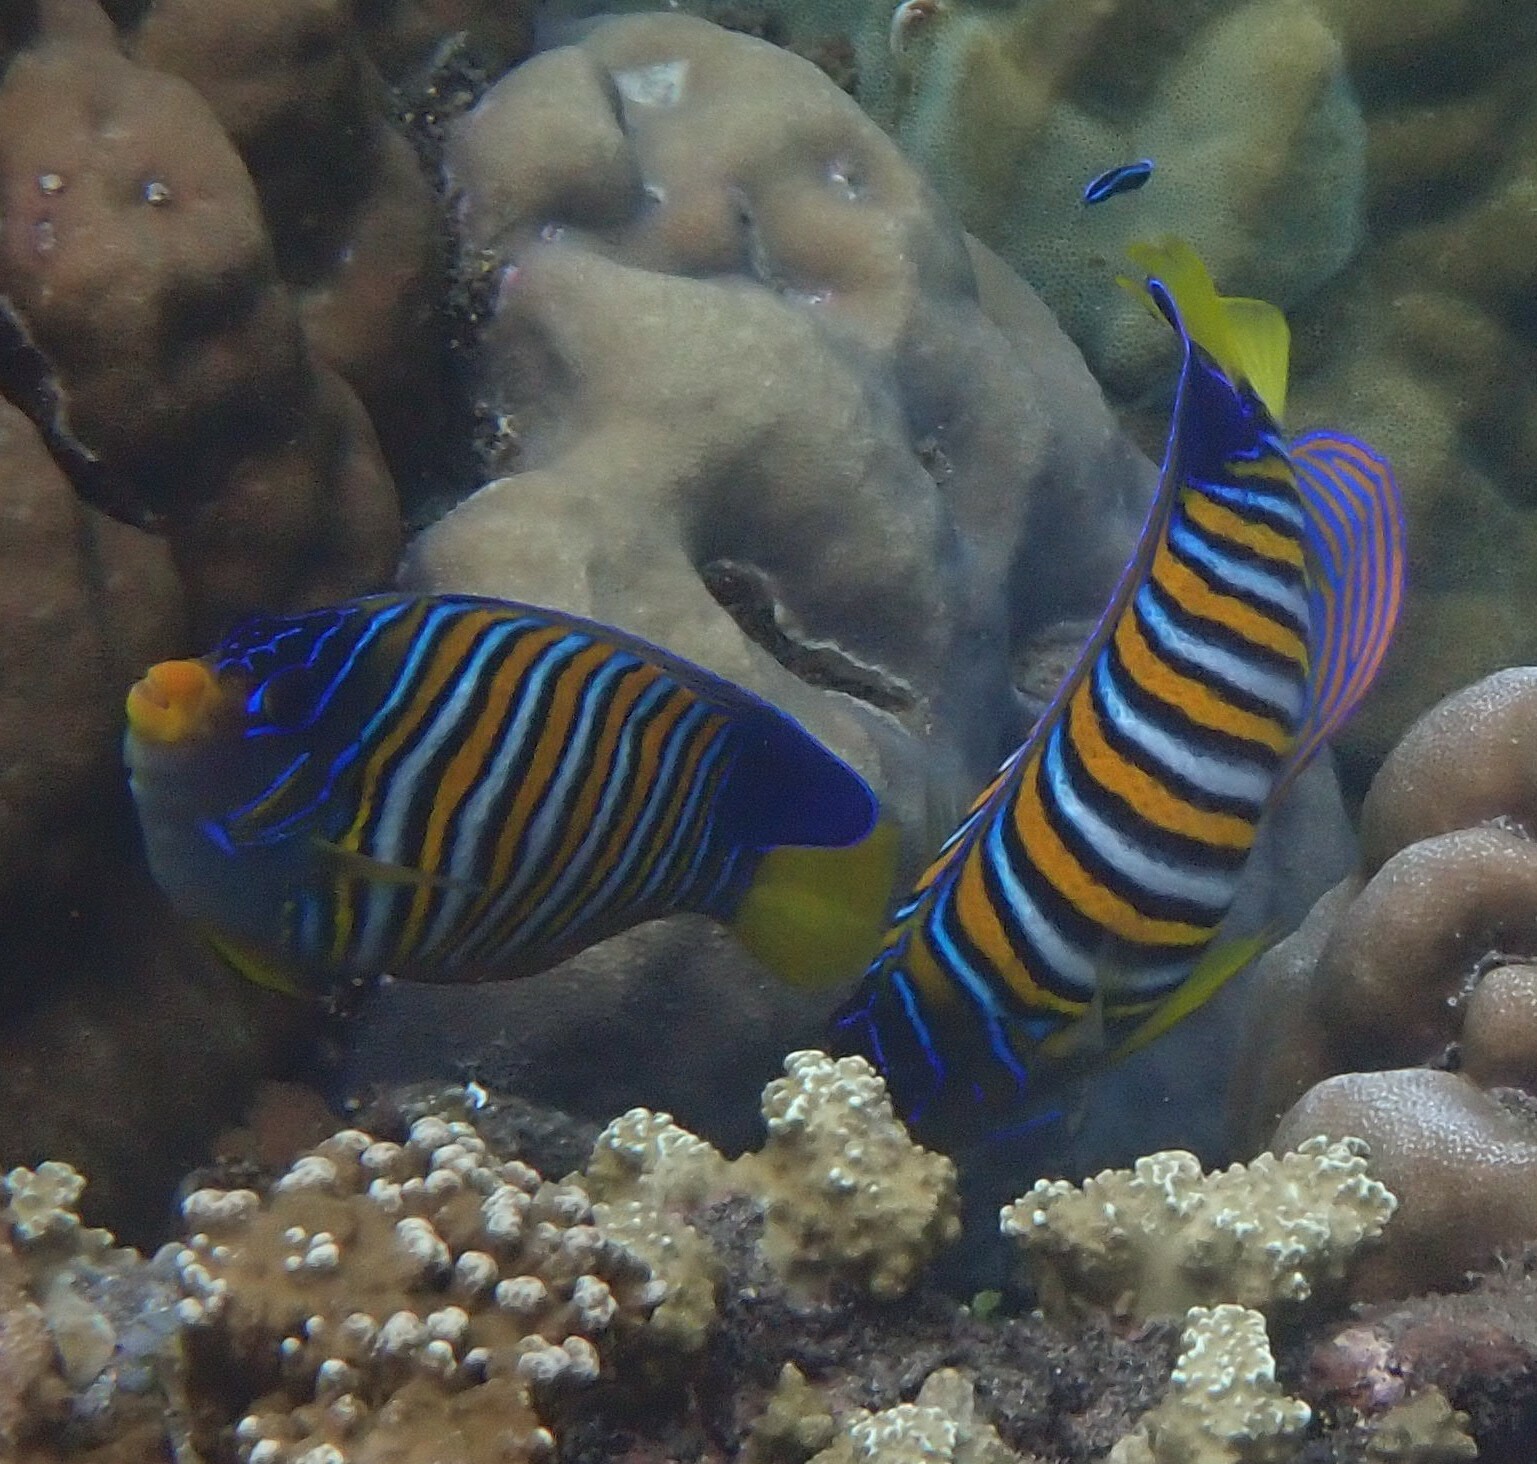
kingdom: Animalia
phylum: Chordata
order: Perciformes
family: Pomacanthidae
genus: Pygoplites
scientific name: Pygoplites diacanthus
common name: Regal angelfish
